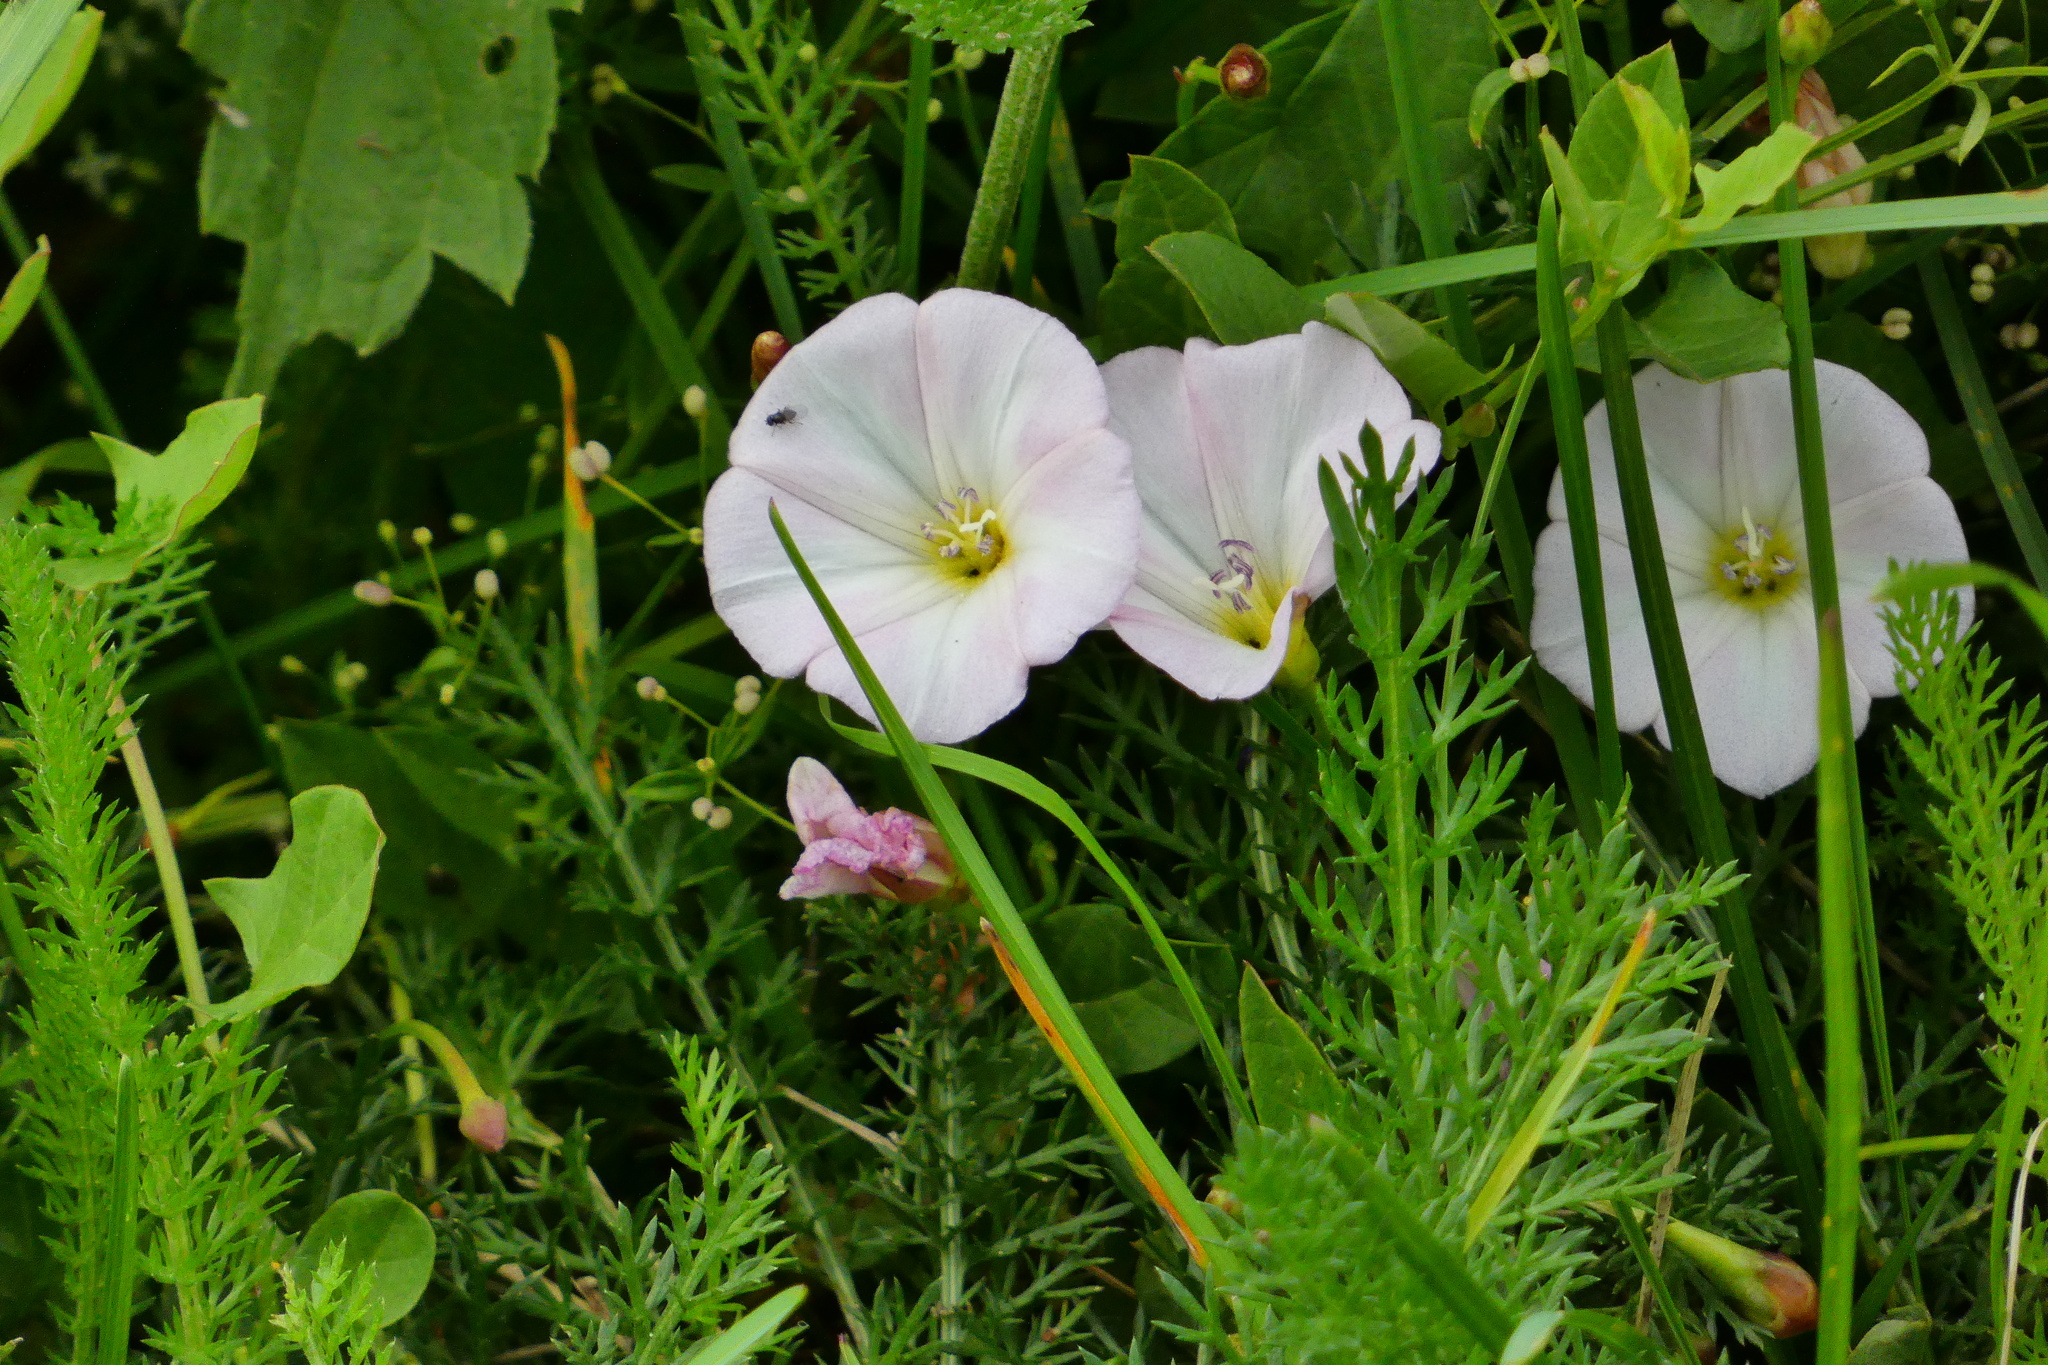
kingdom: Plantae
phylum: Tracheophyta
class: Magnoliopsida
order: Solanales
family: Convolvulaceae
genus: Convolvulus
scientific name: Convolvulus arvensis
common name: Field bindweed
